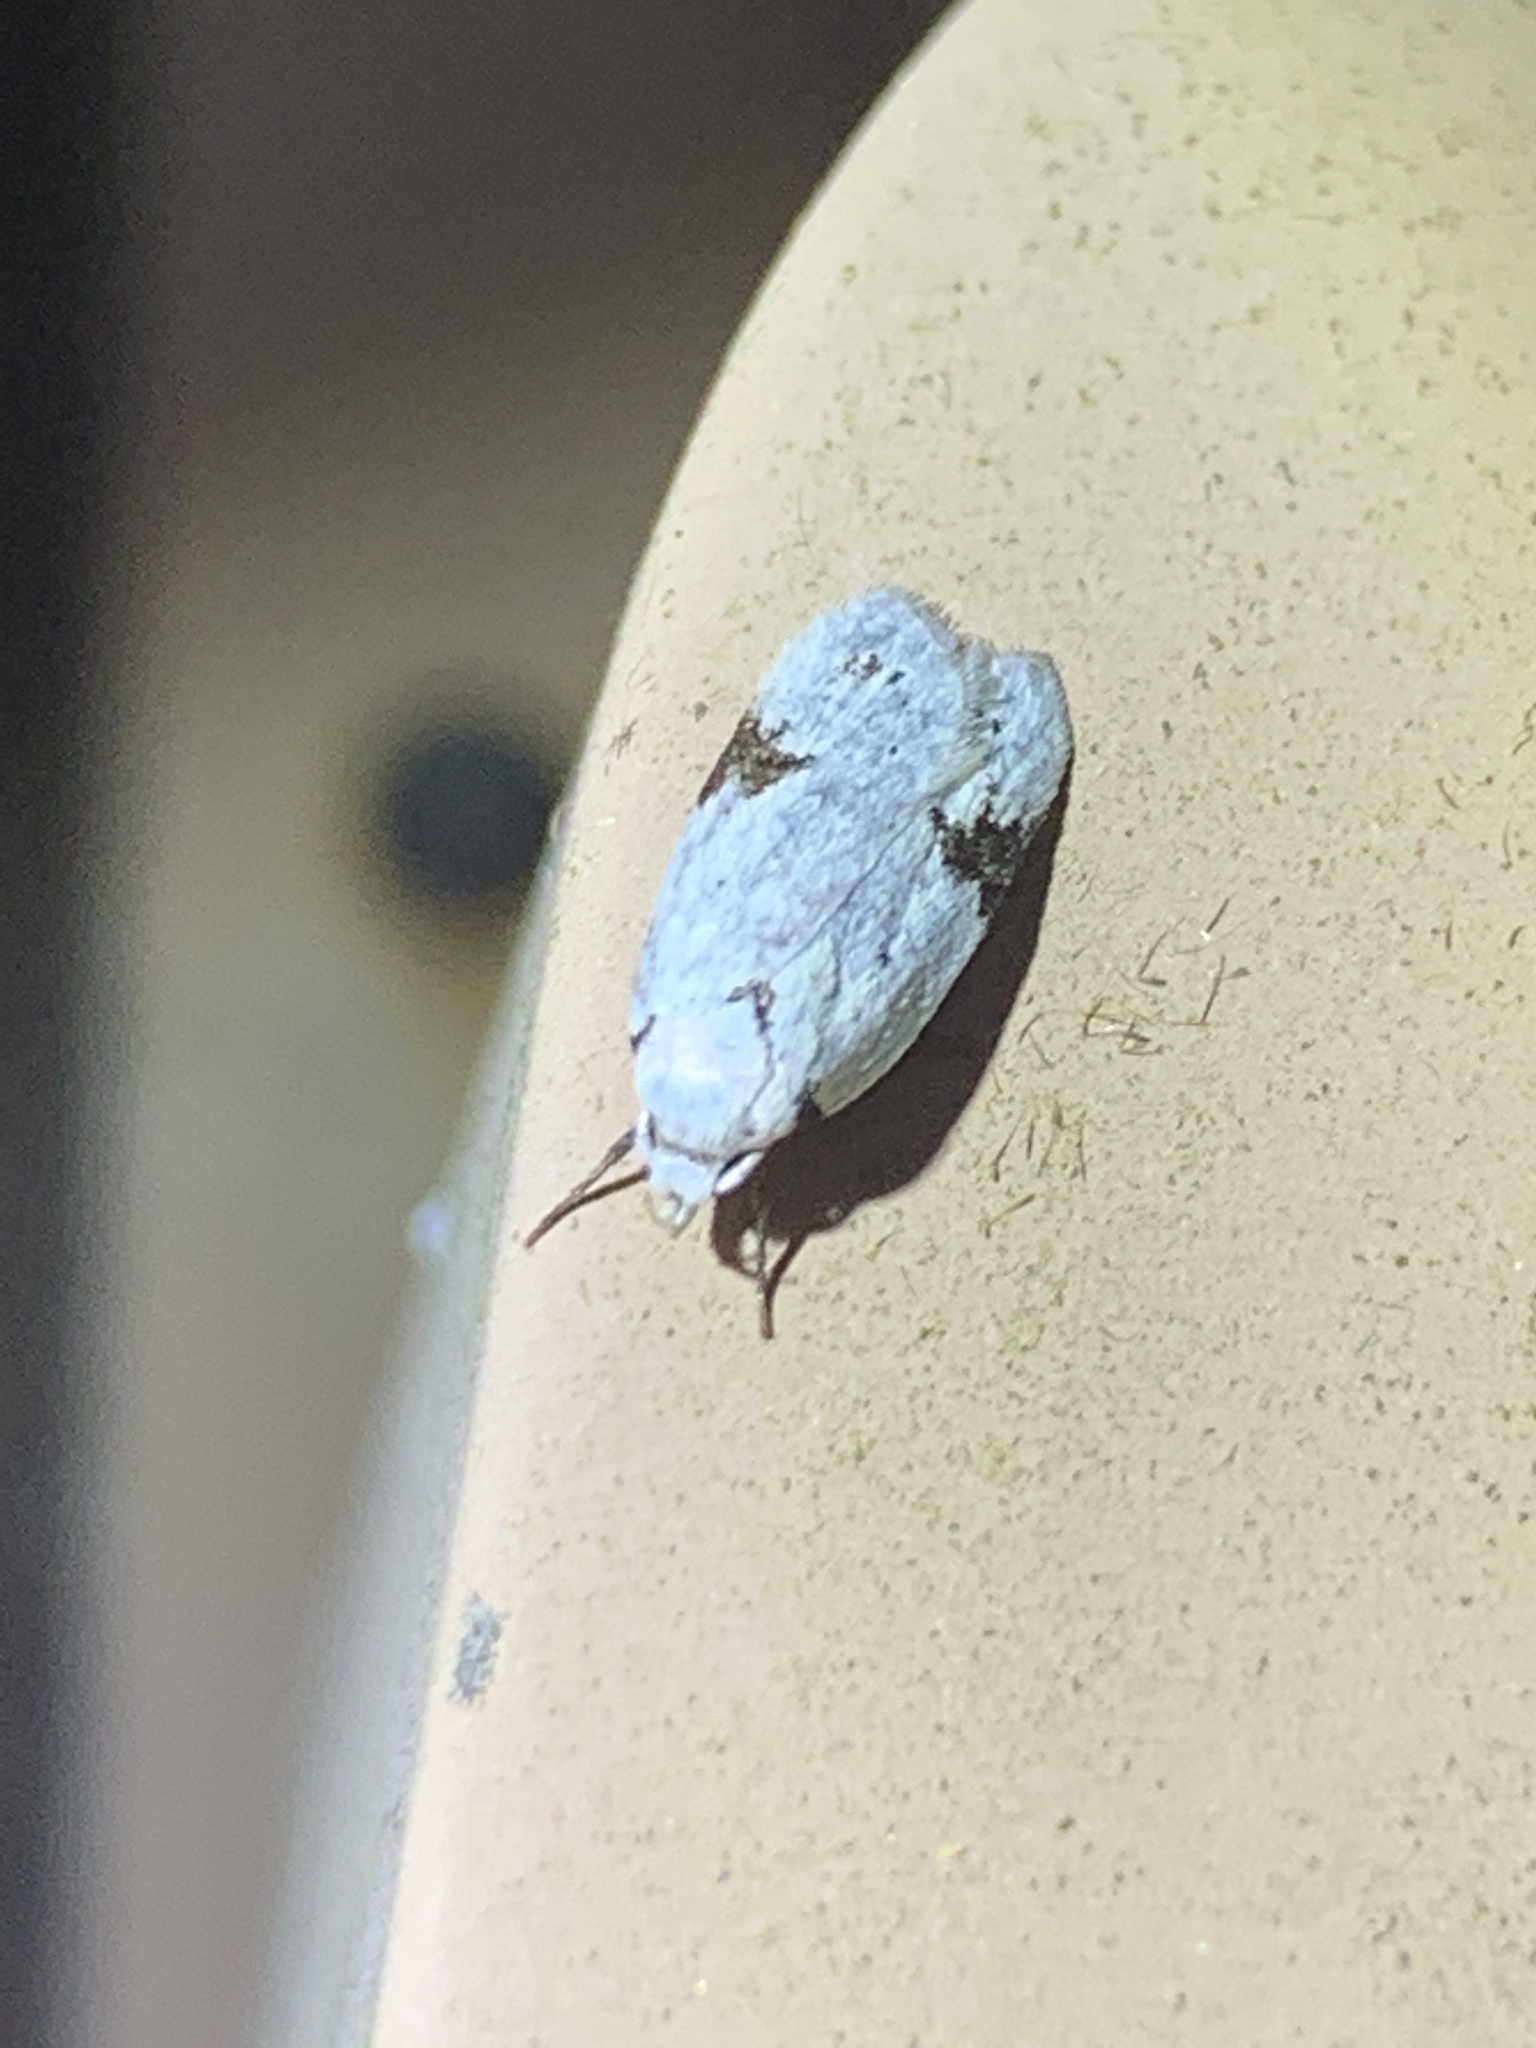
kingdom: Animalia
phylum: Arthropoda
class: Insecta
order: Lepidoptera
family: Oecophoridae
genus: Inga
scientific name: Inga sparsiciliella
